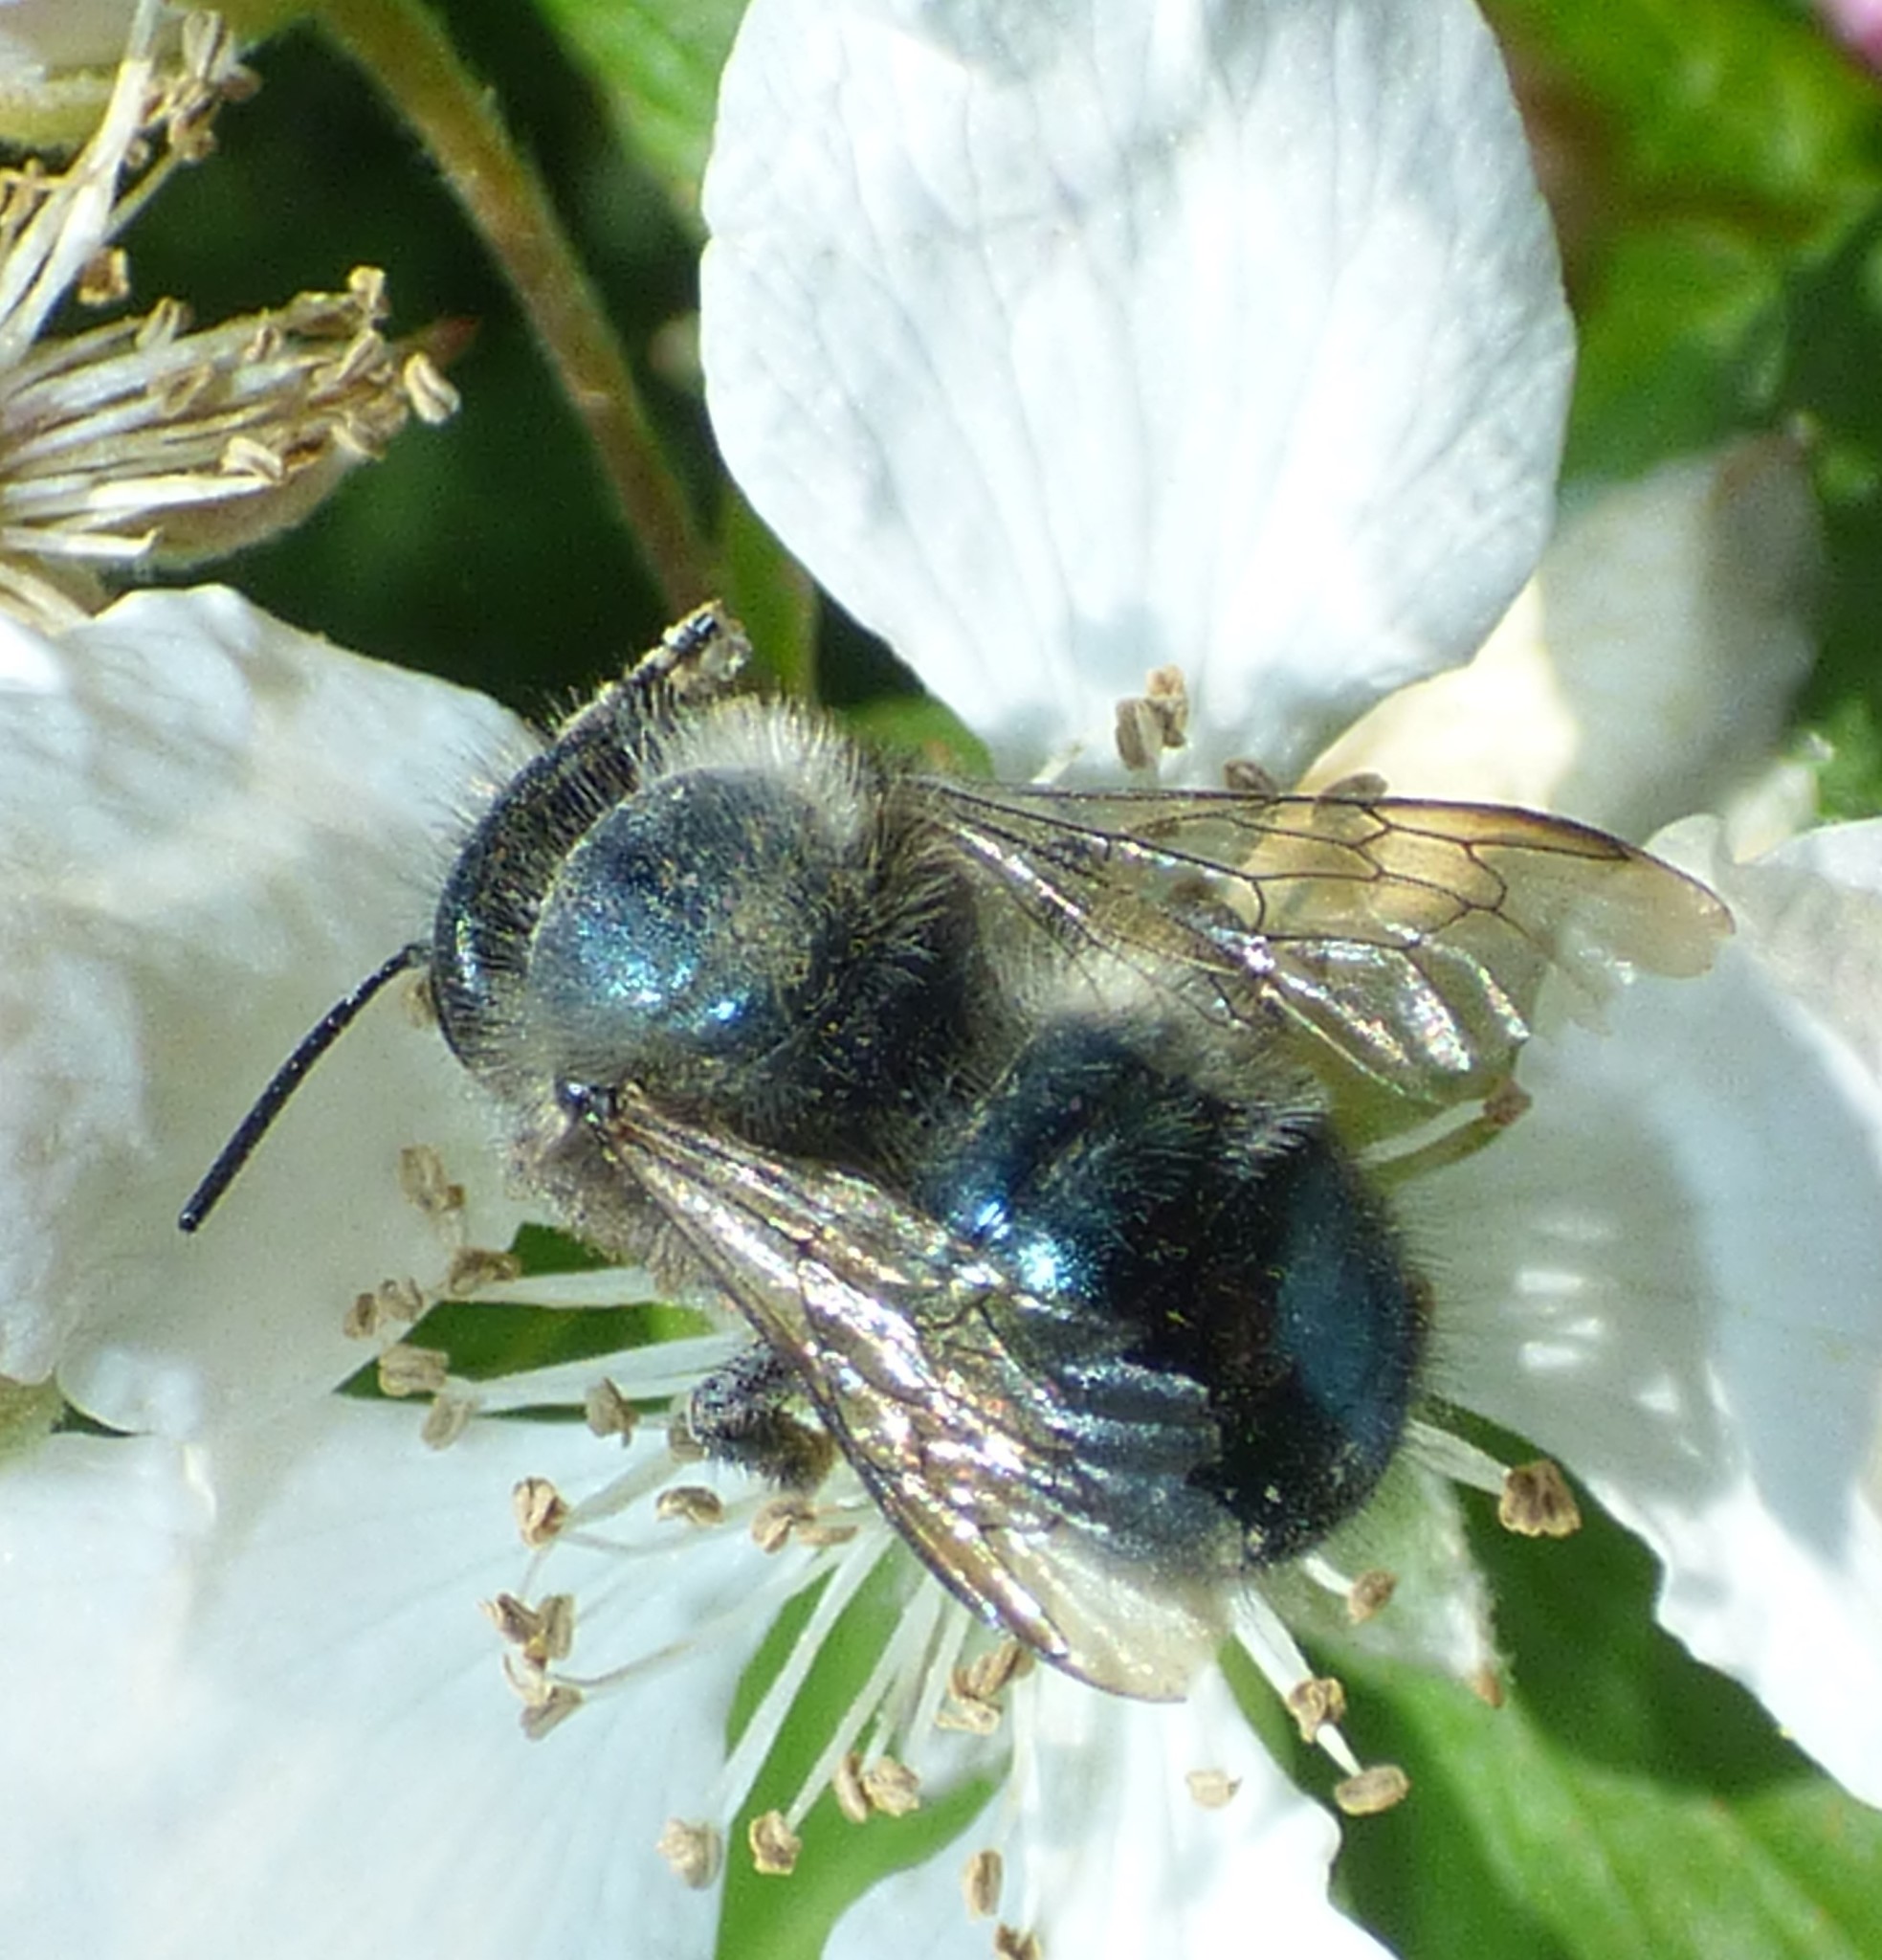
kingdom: Animalia
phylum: Arthropoda
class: Insecta
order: Hymenoptera
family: Megachilidae
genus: Osmia
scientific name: Osmia lignaria
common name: Blue orchard bee
